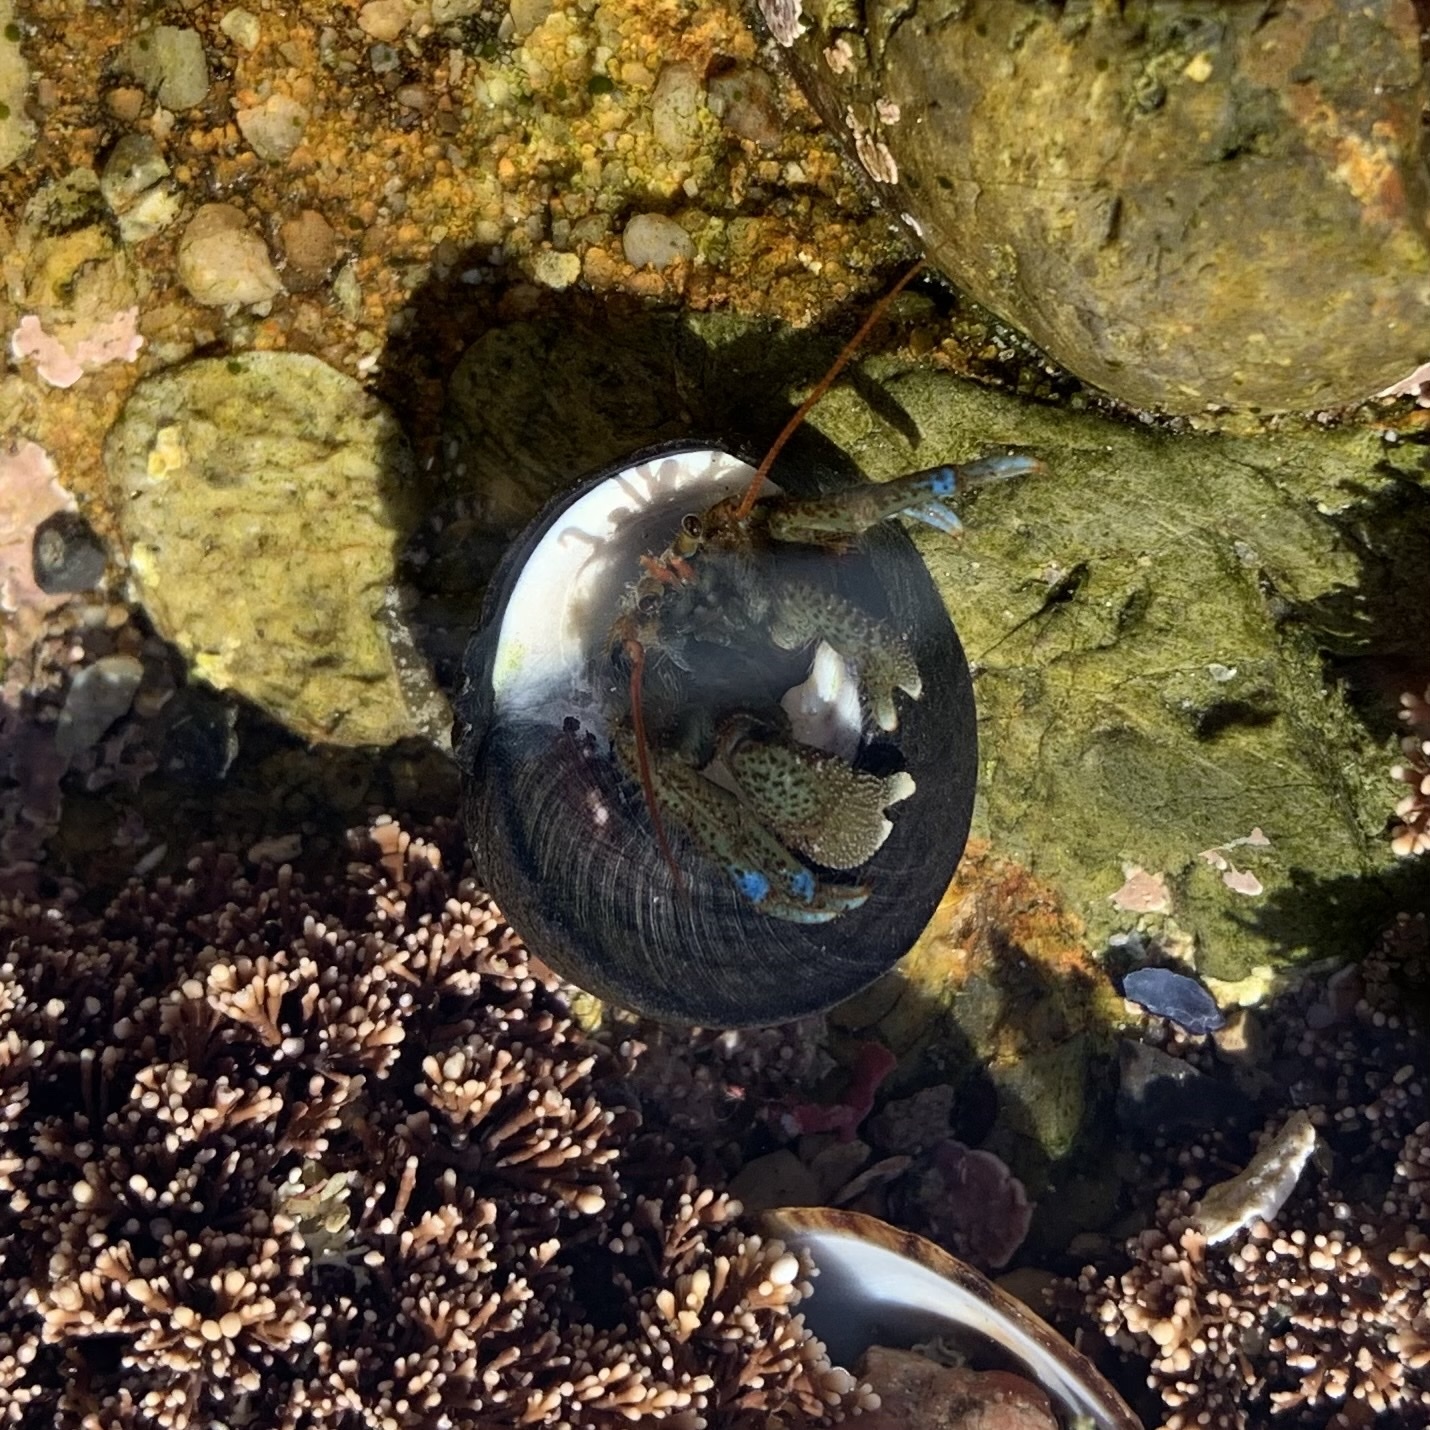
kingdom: Animalia
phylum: Arthropoda
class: Malacostraca
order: Decapoda
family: Paguridae
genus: Pagurus
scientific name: Pagurus samuelis
